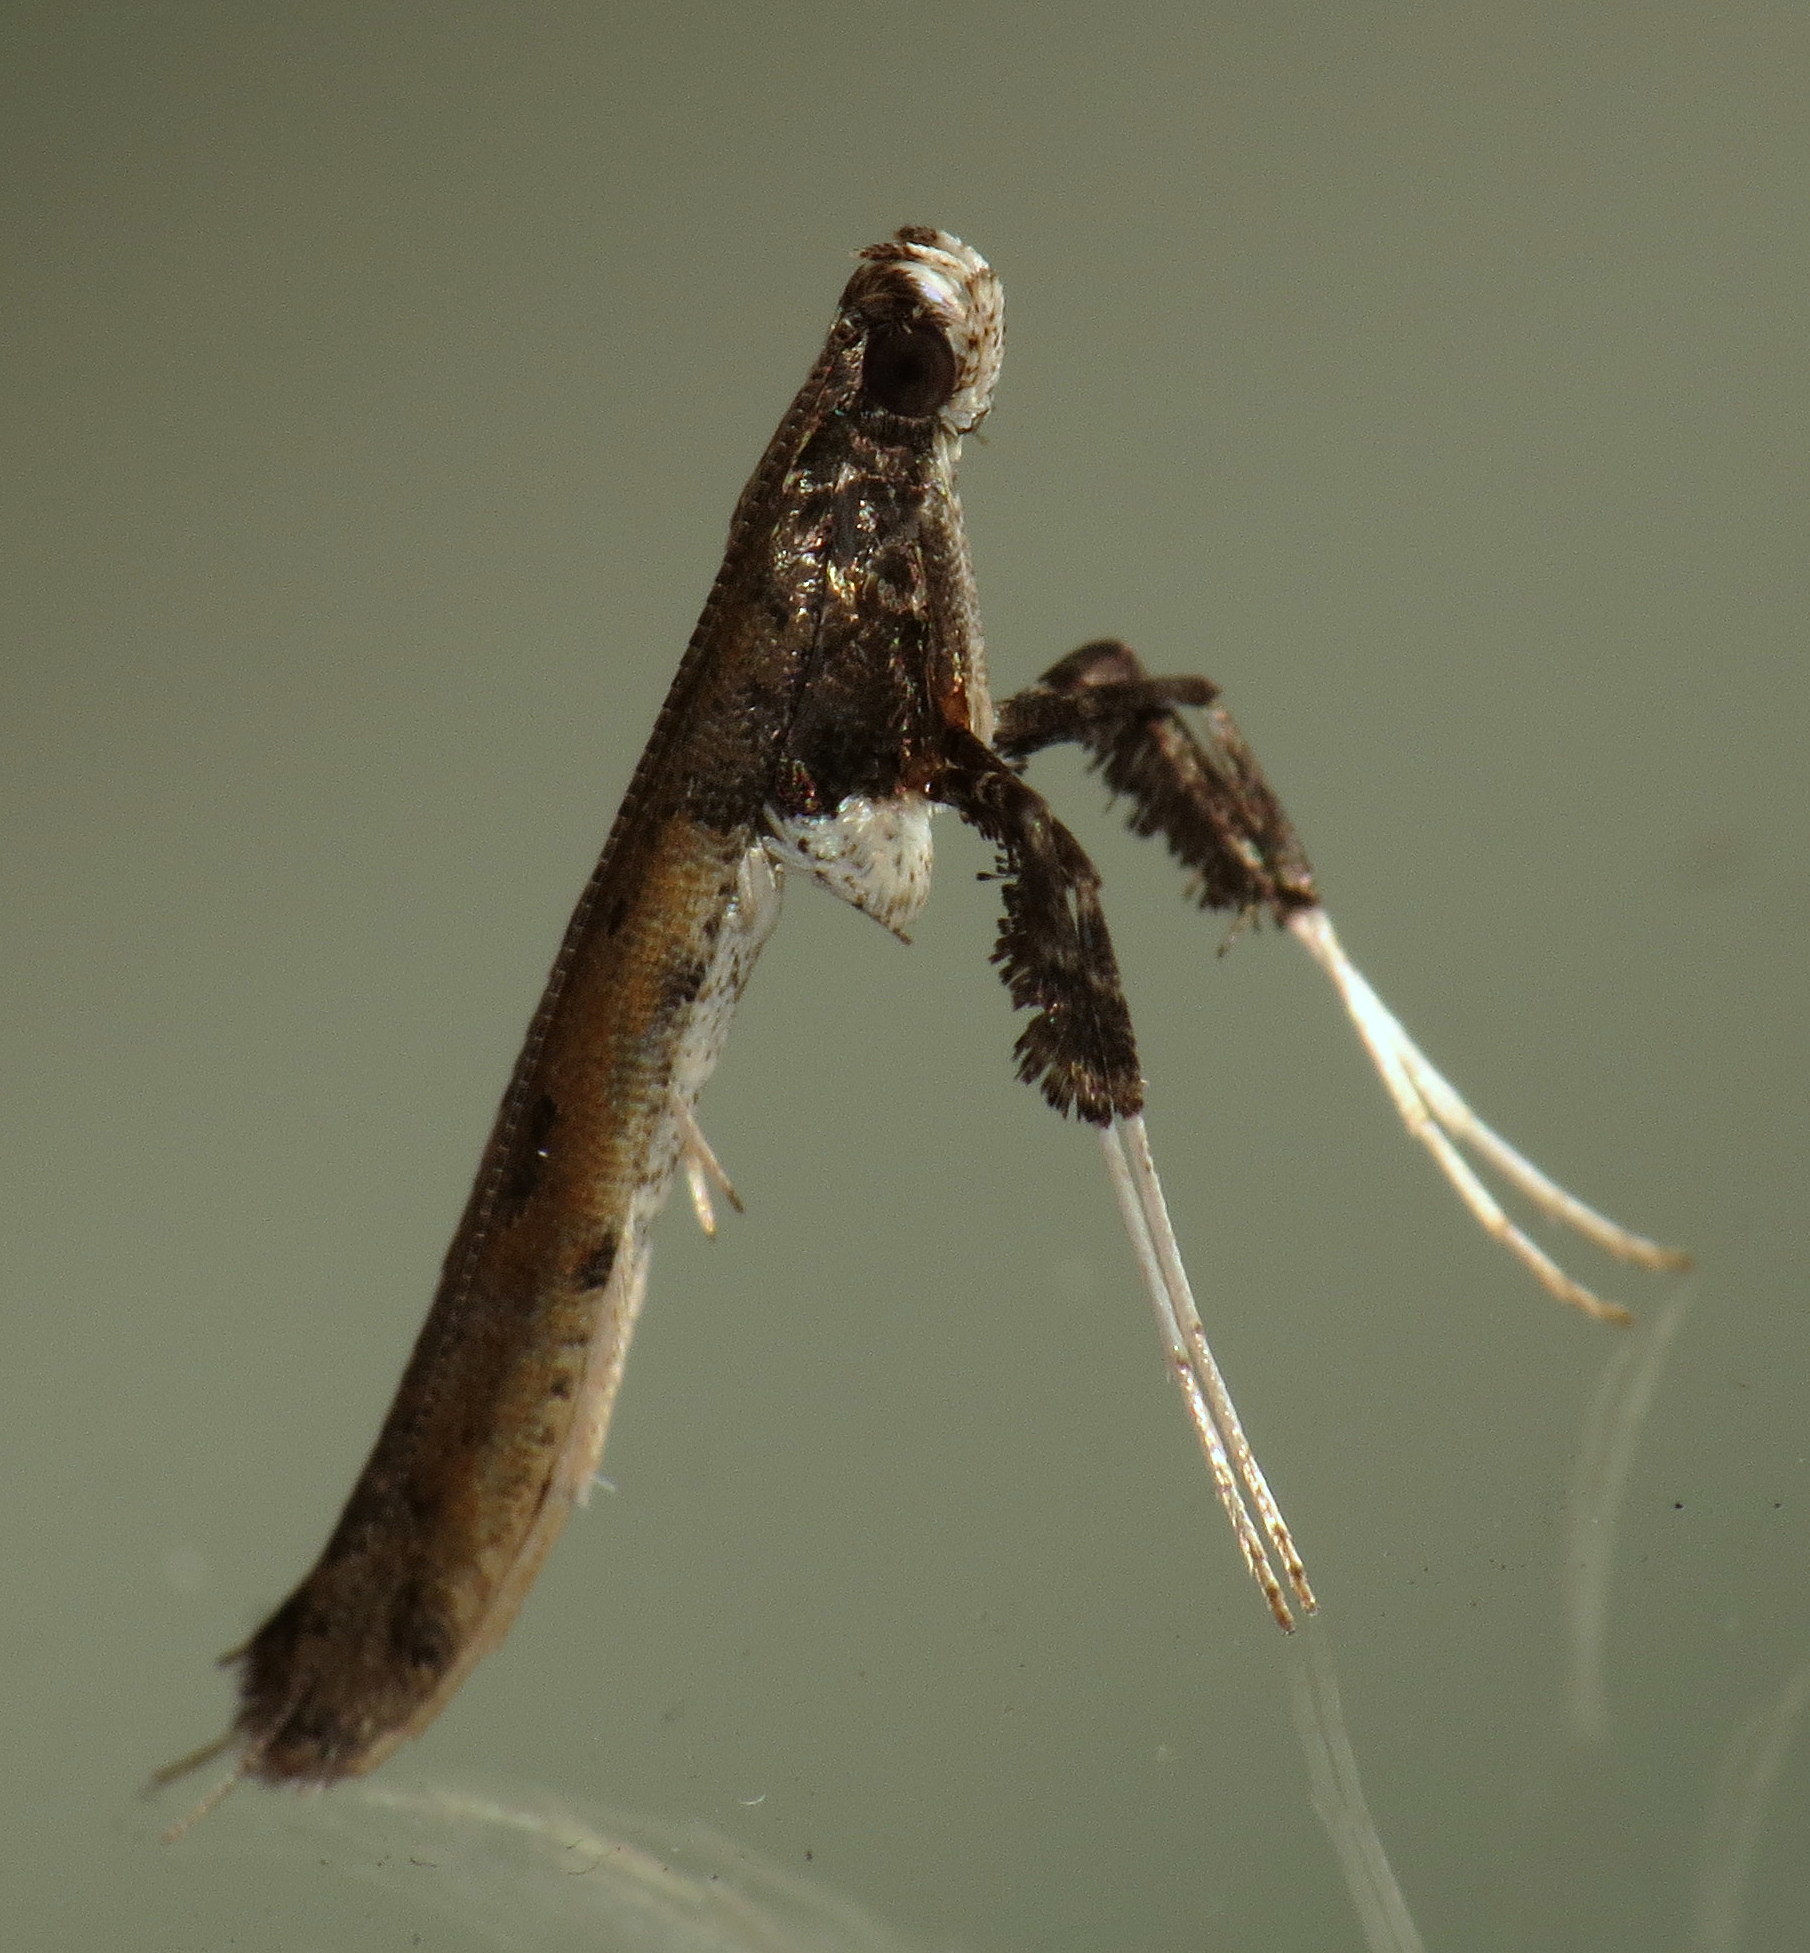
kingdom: Animalia
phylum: Arthropoda
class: Insecta
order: Lepidoptera
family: Gracillariidae
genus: Caloptilia
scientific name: Caloptilia sassafrasella
